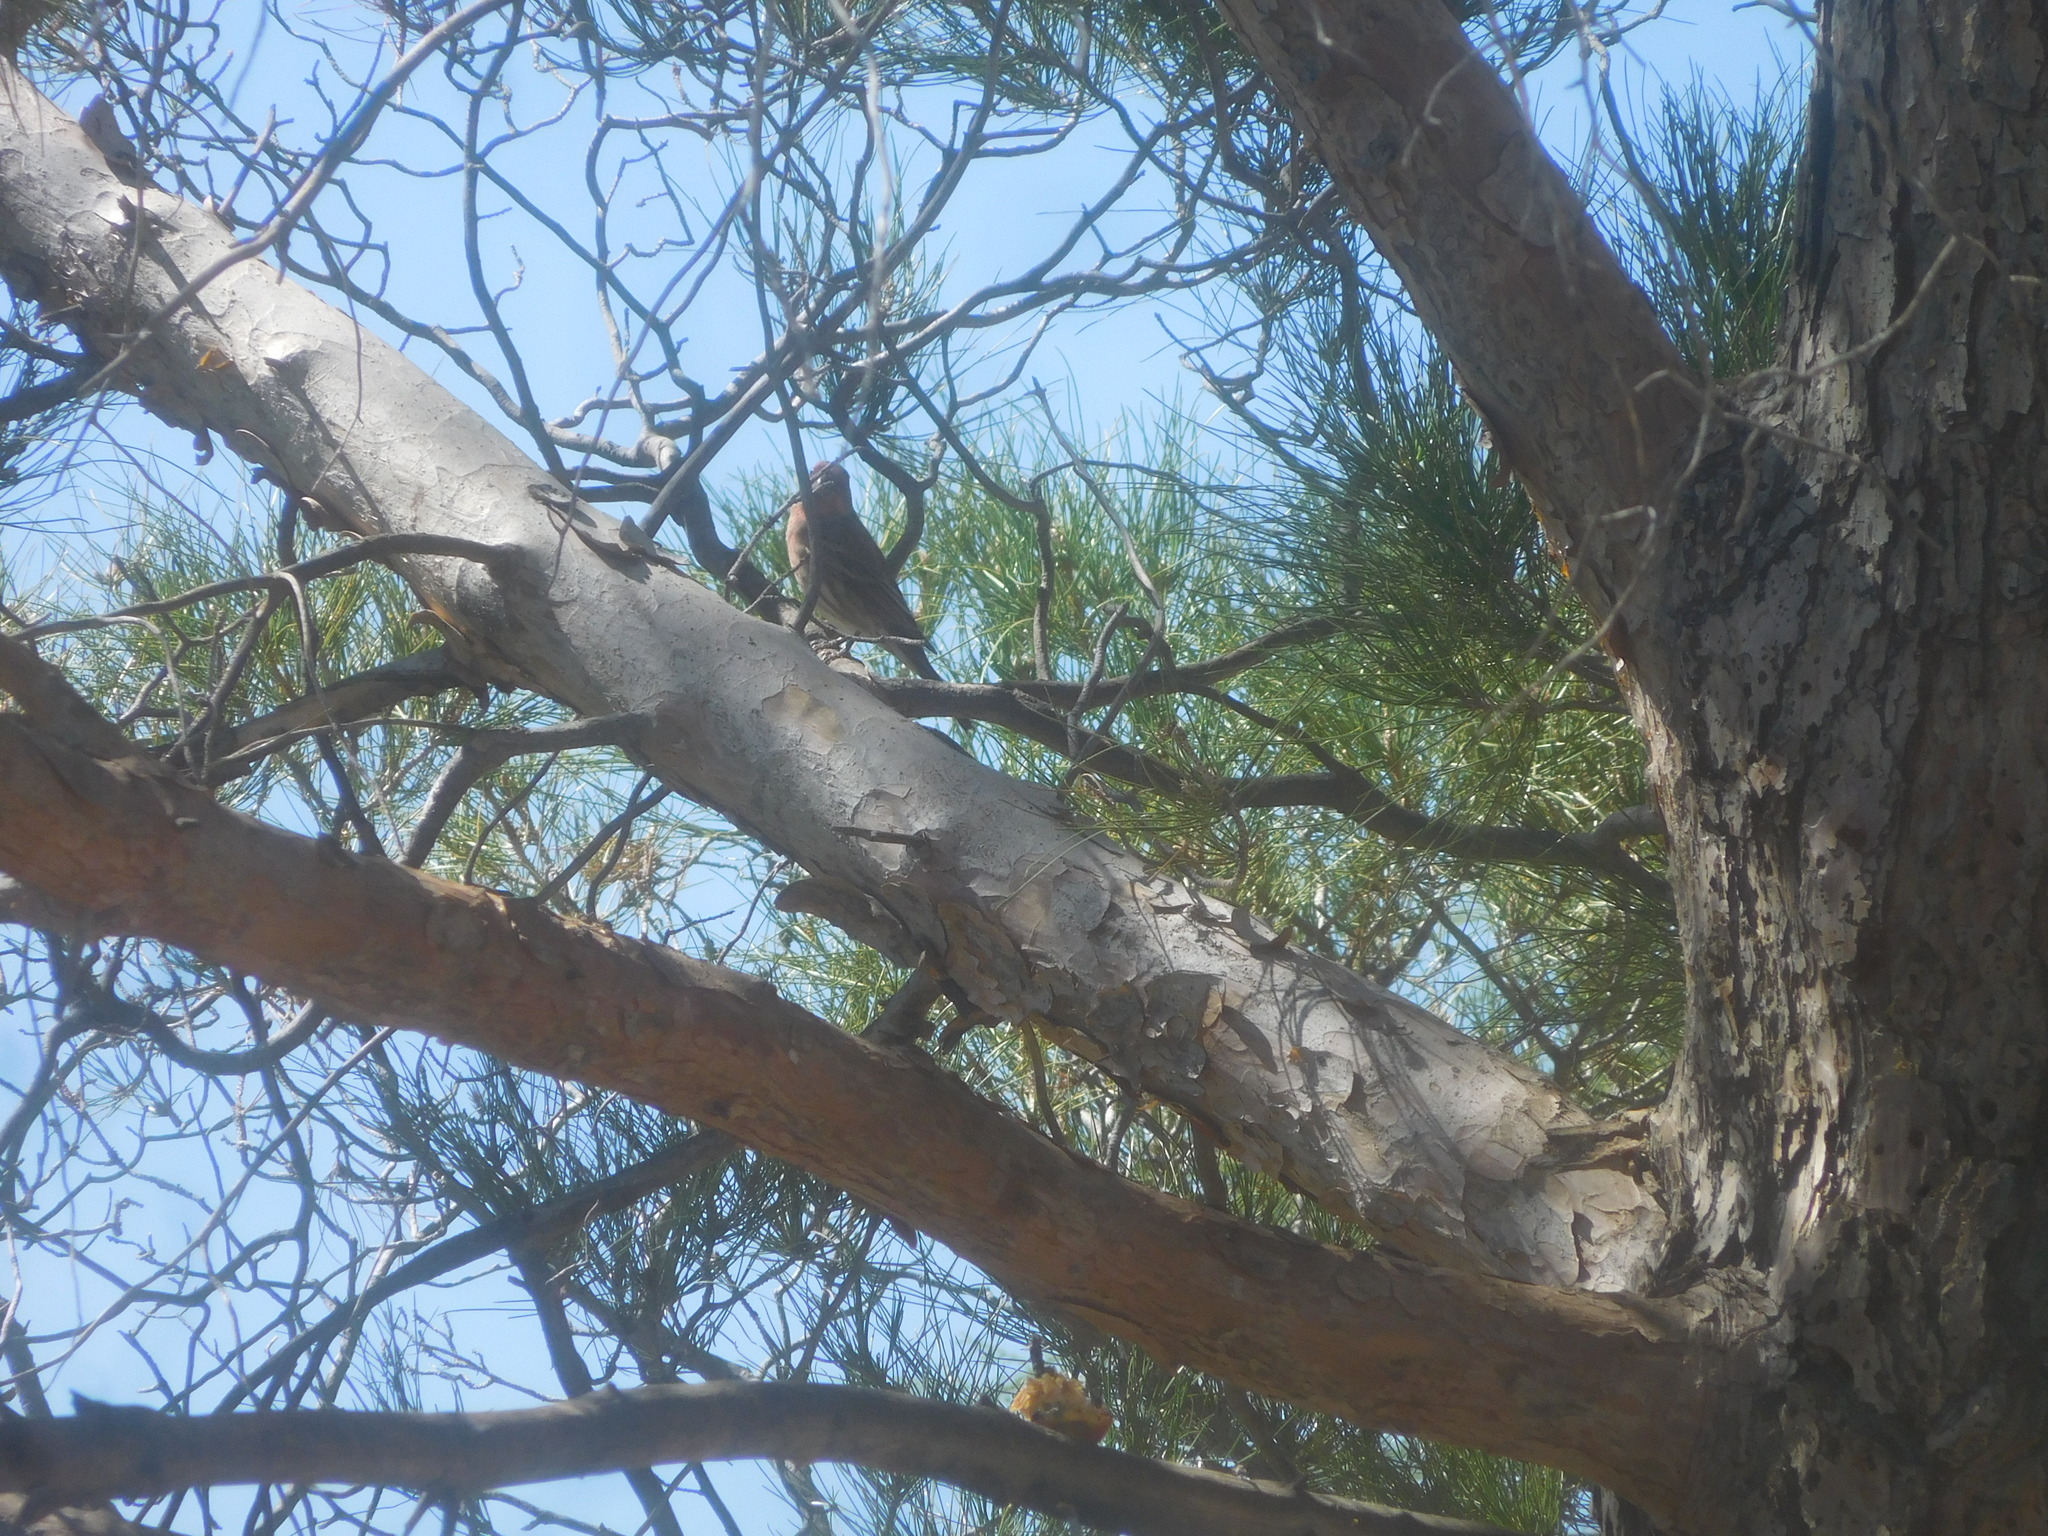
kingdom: Animalia
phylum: Chordata
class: Aves
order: Passeriformes
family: Fringillidae
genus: Haemorhous
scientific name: Haemorhous mexicanus
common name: House finch
